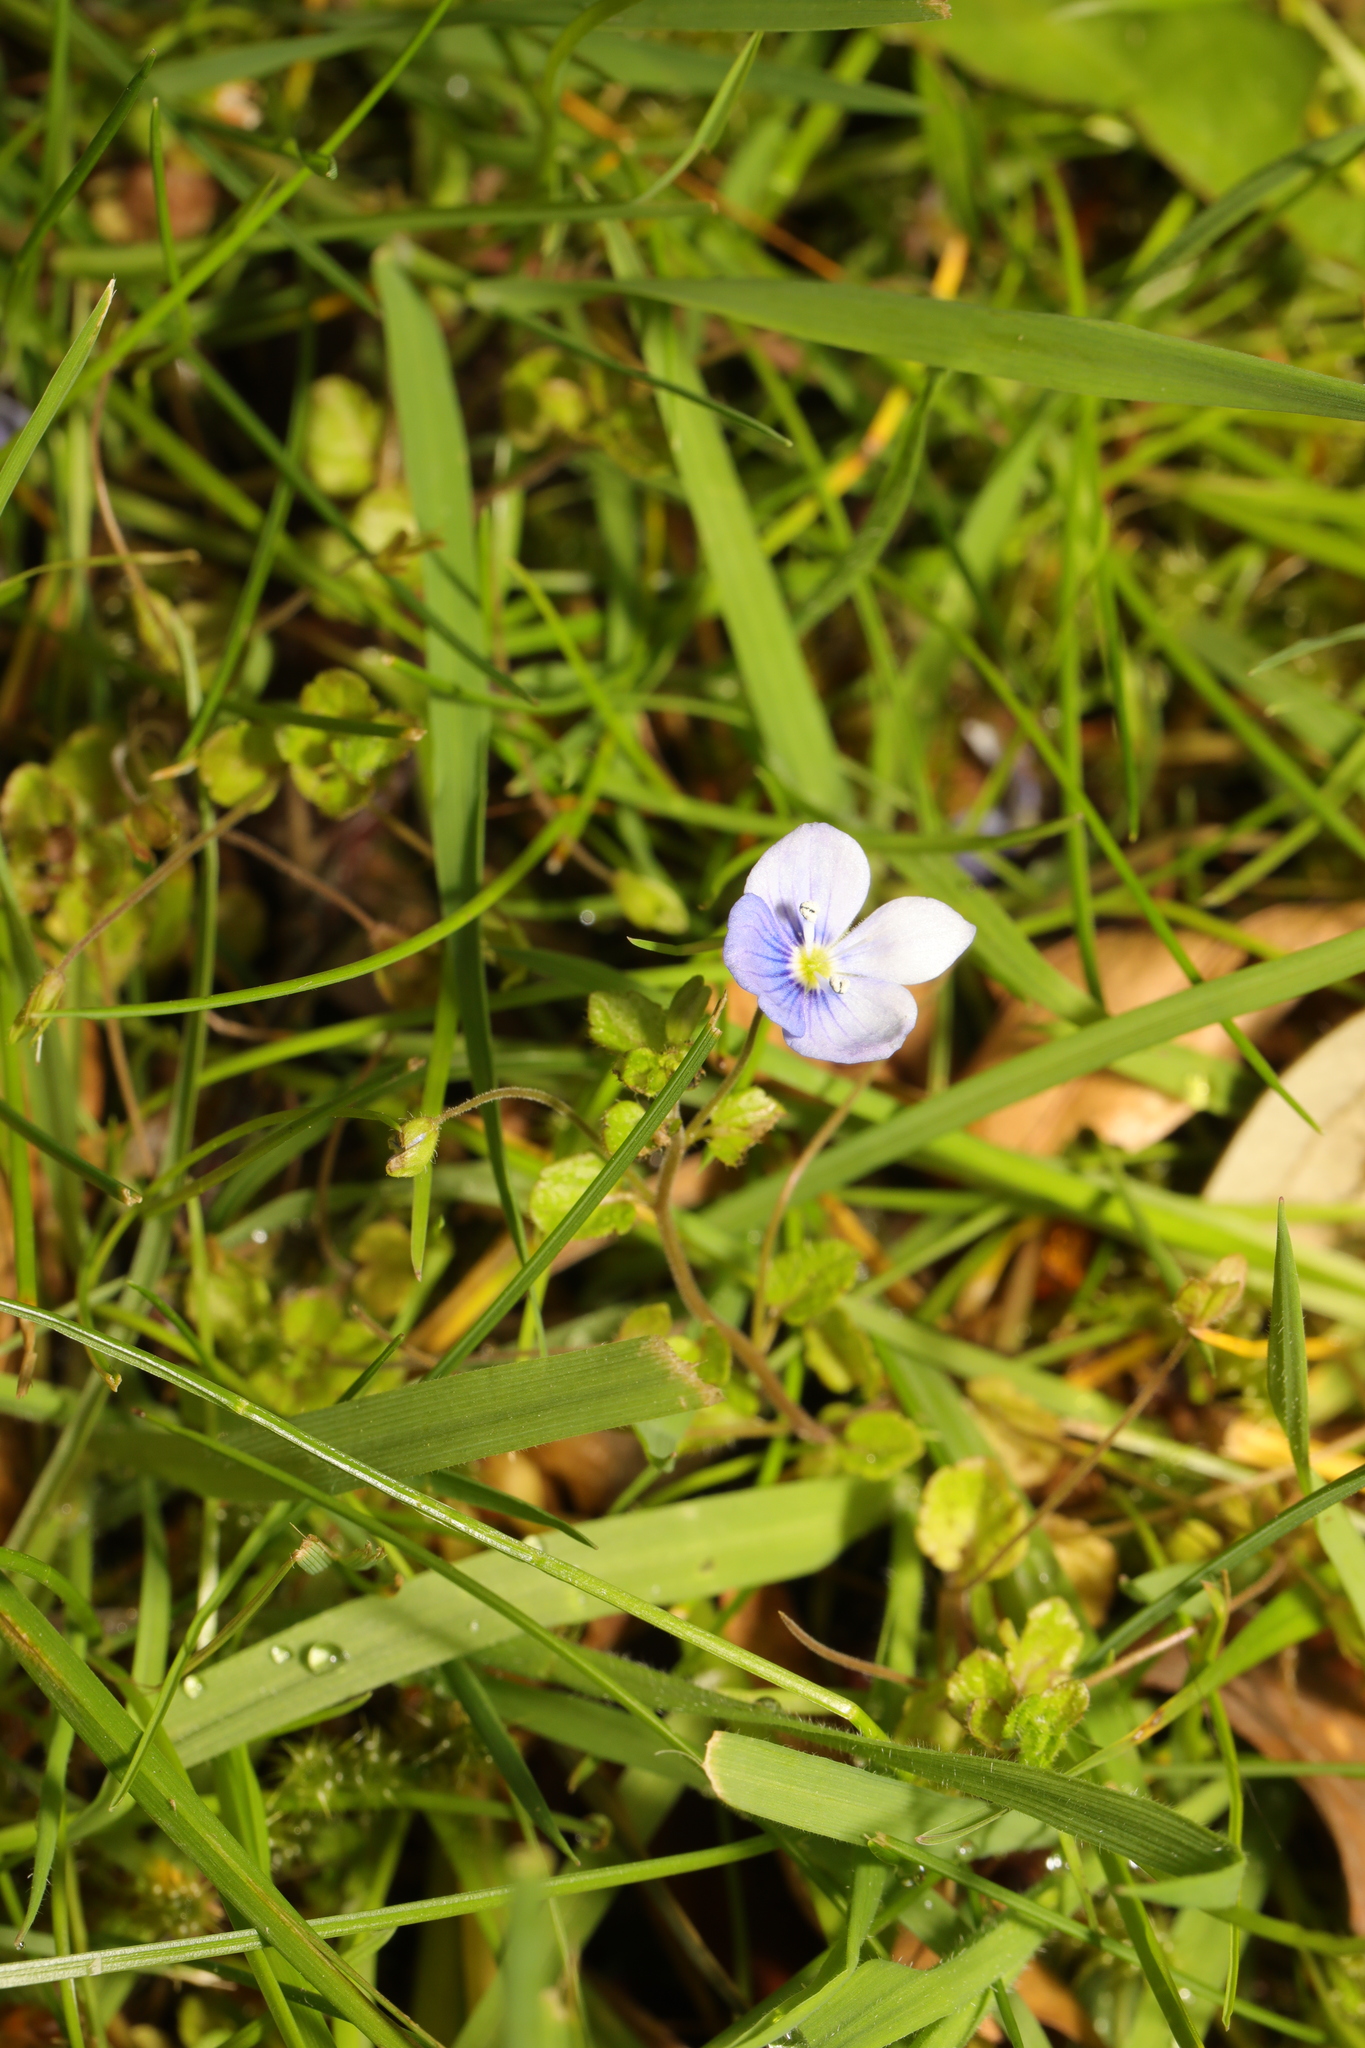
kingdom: Plantae
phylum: Tracheophyta
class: Magnoliopsida
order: Lamiales
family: Plantaginaceae
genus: Veronica
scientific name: Veronica filiformis
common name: Slender speedwell
